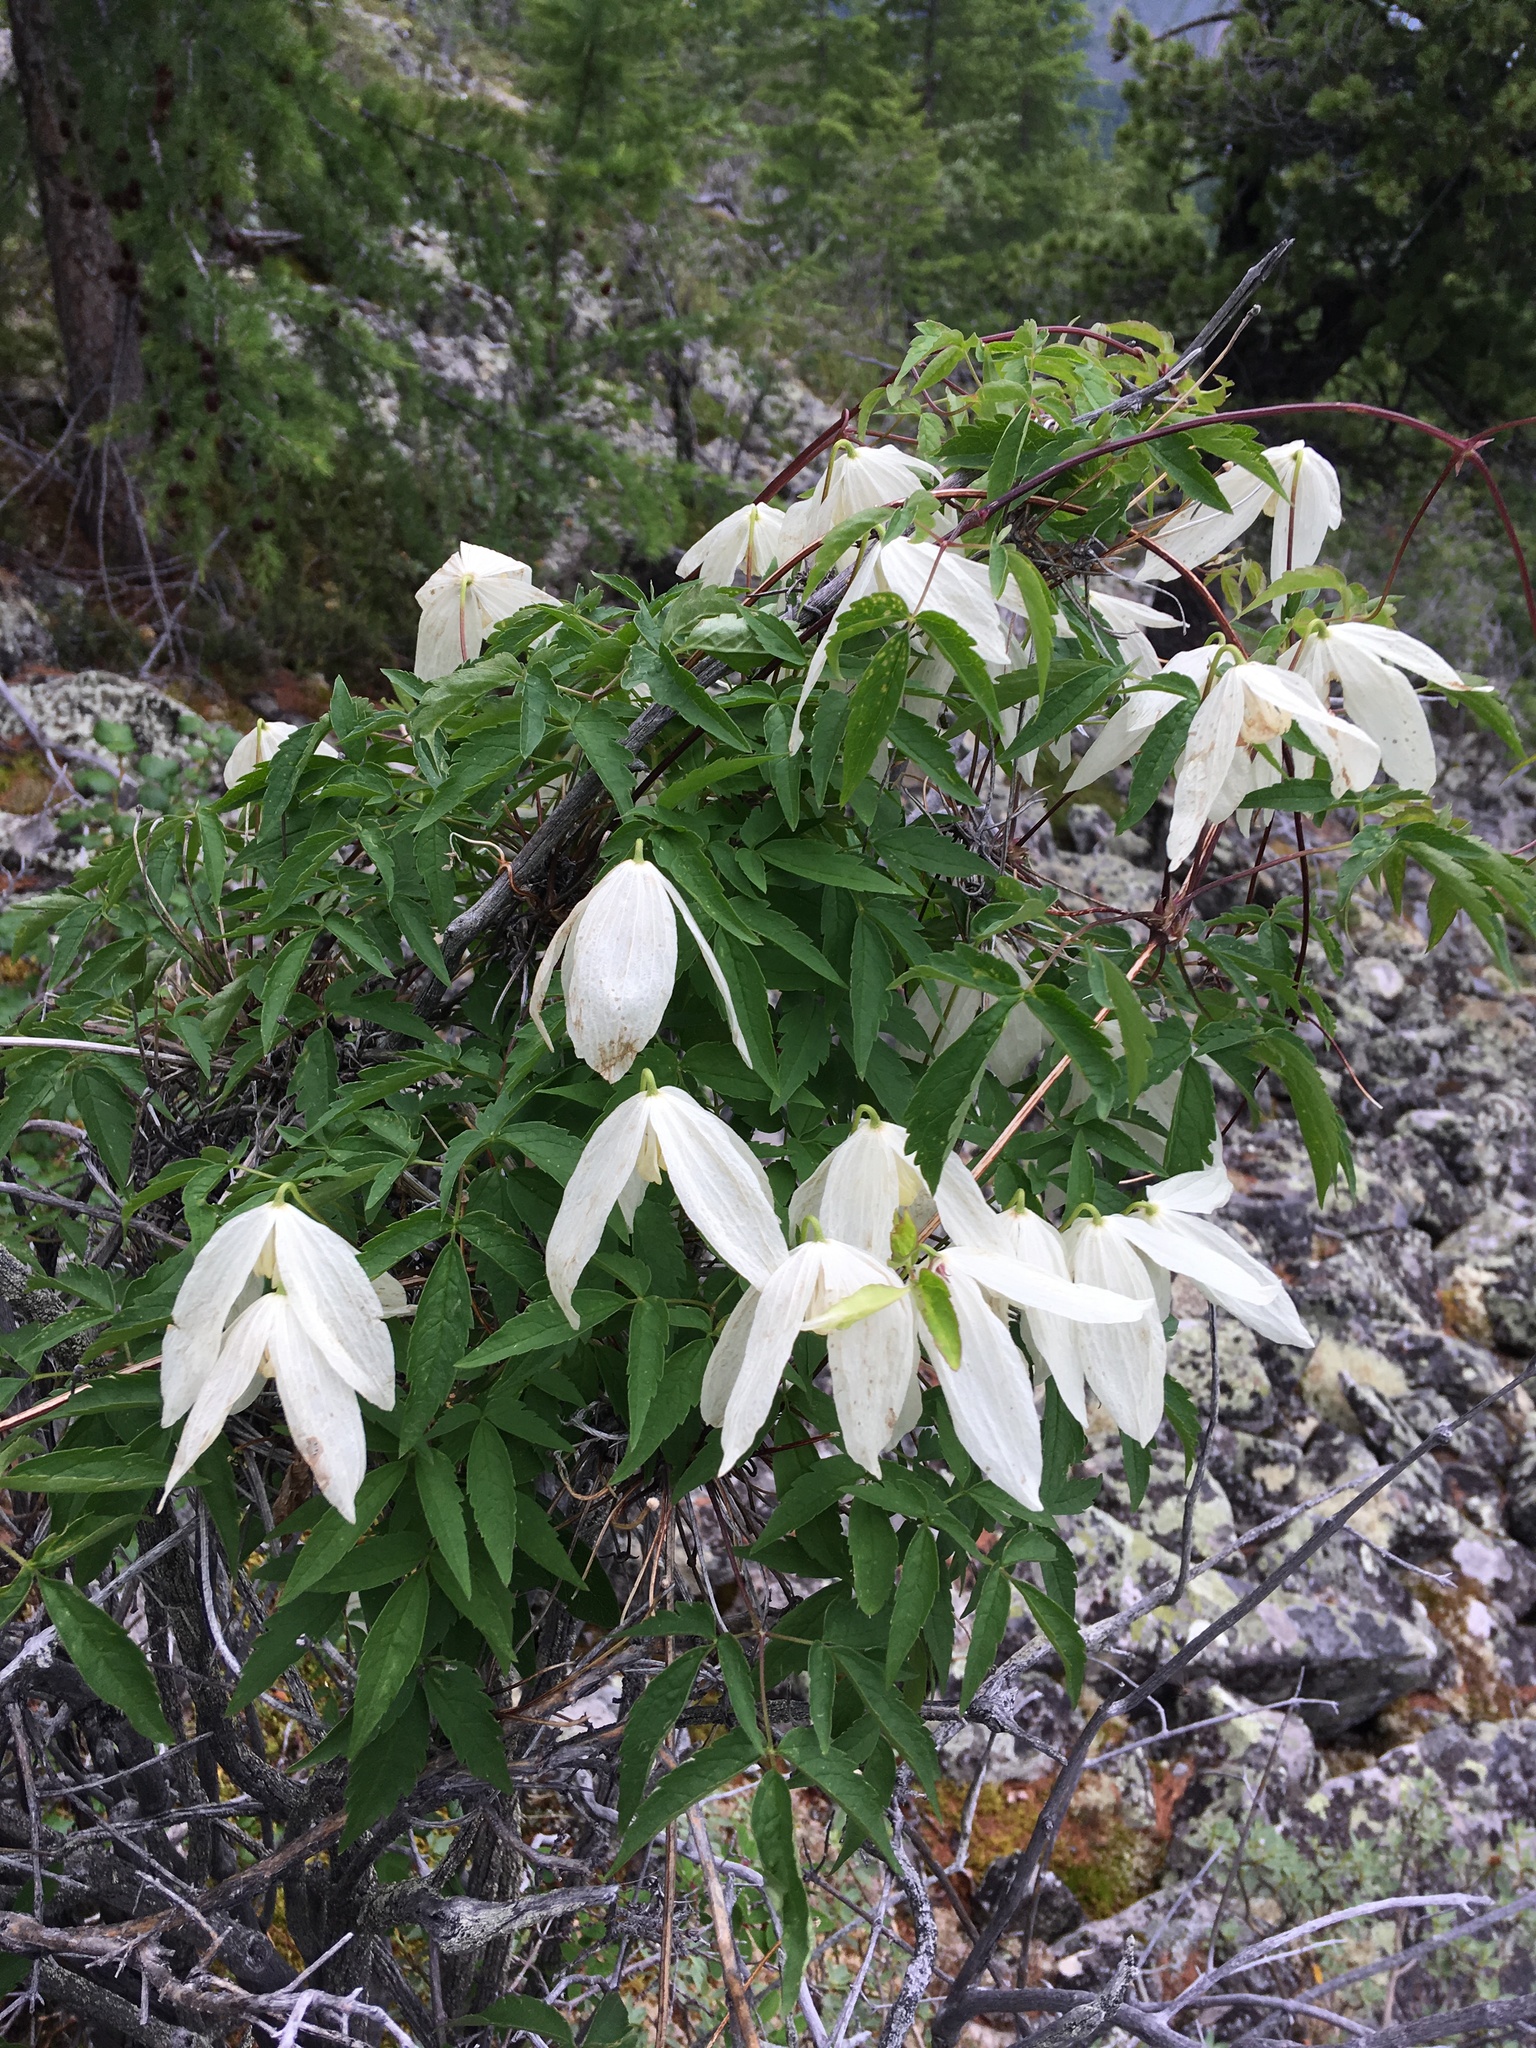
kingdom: Plantae
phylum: Tracheophyta
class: Magnoliopsida
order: Ranunculales
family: Ranunculaceae
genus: Clematis
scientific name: Clematis sibirica
